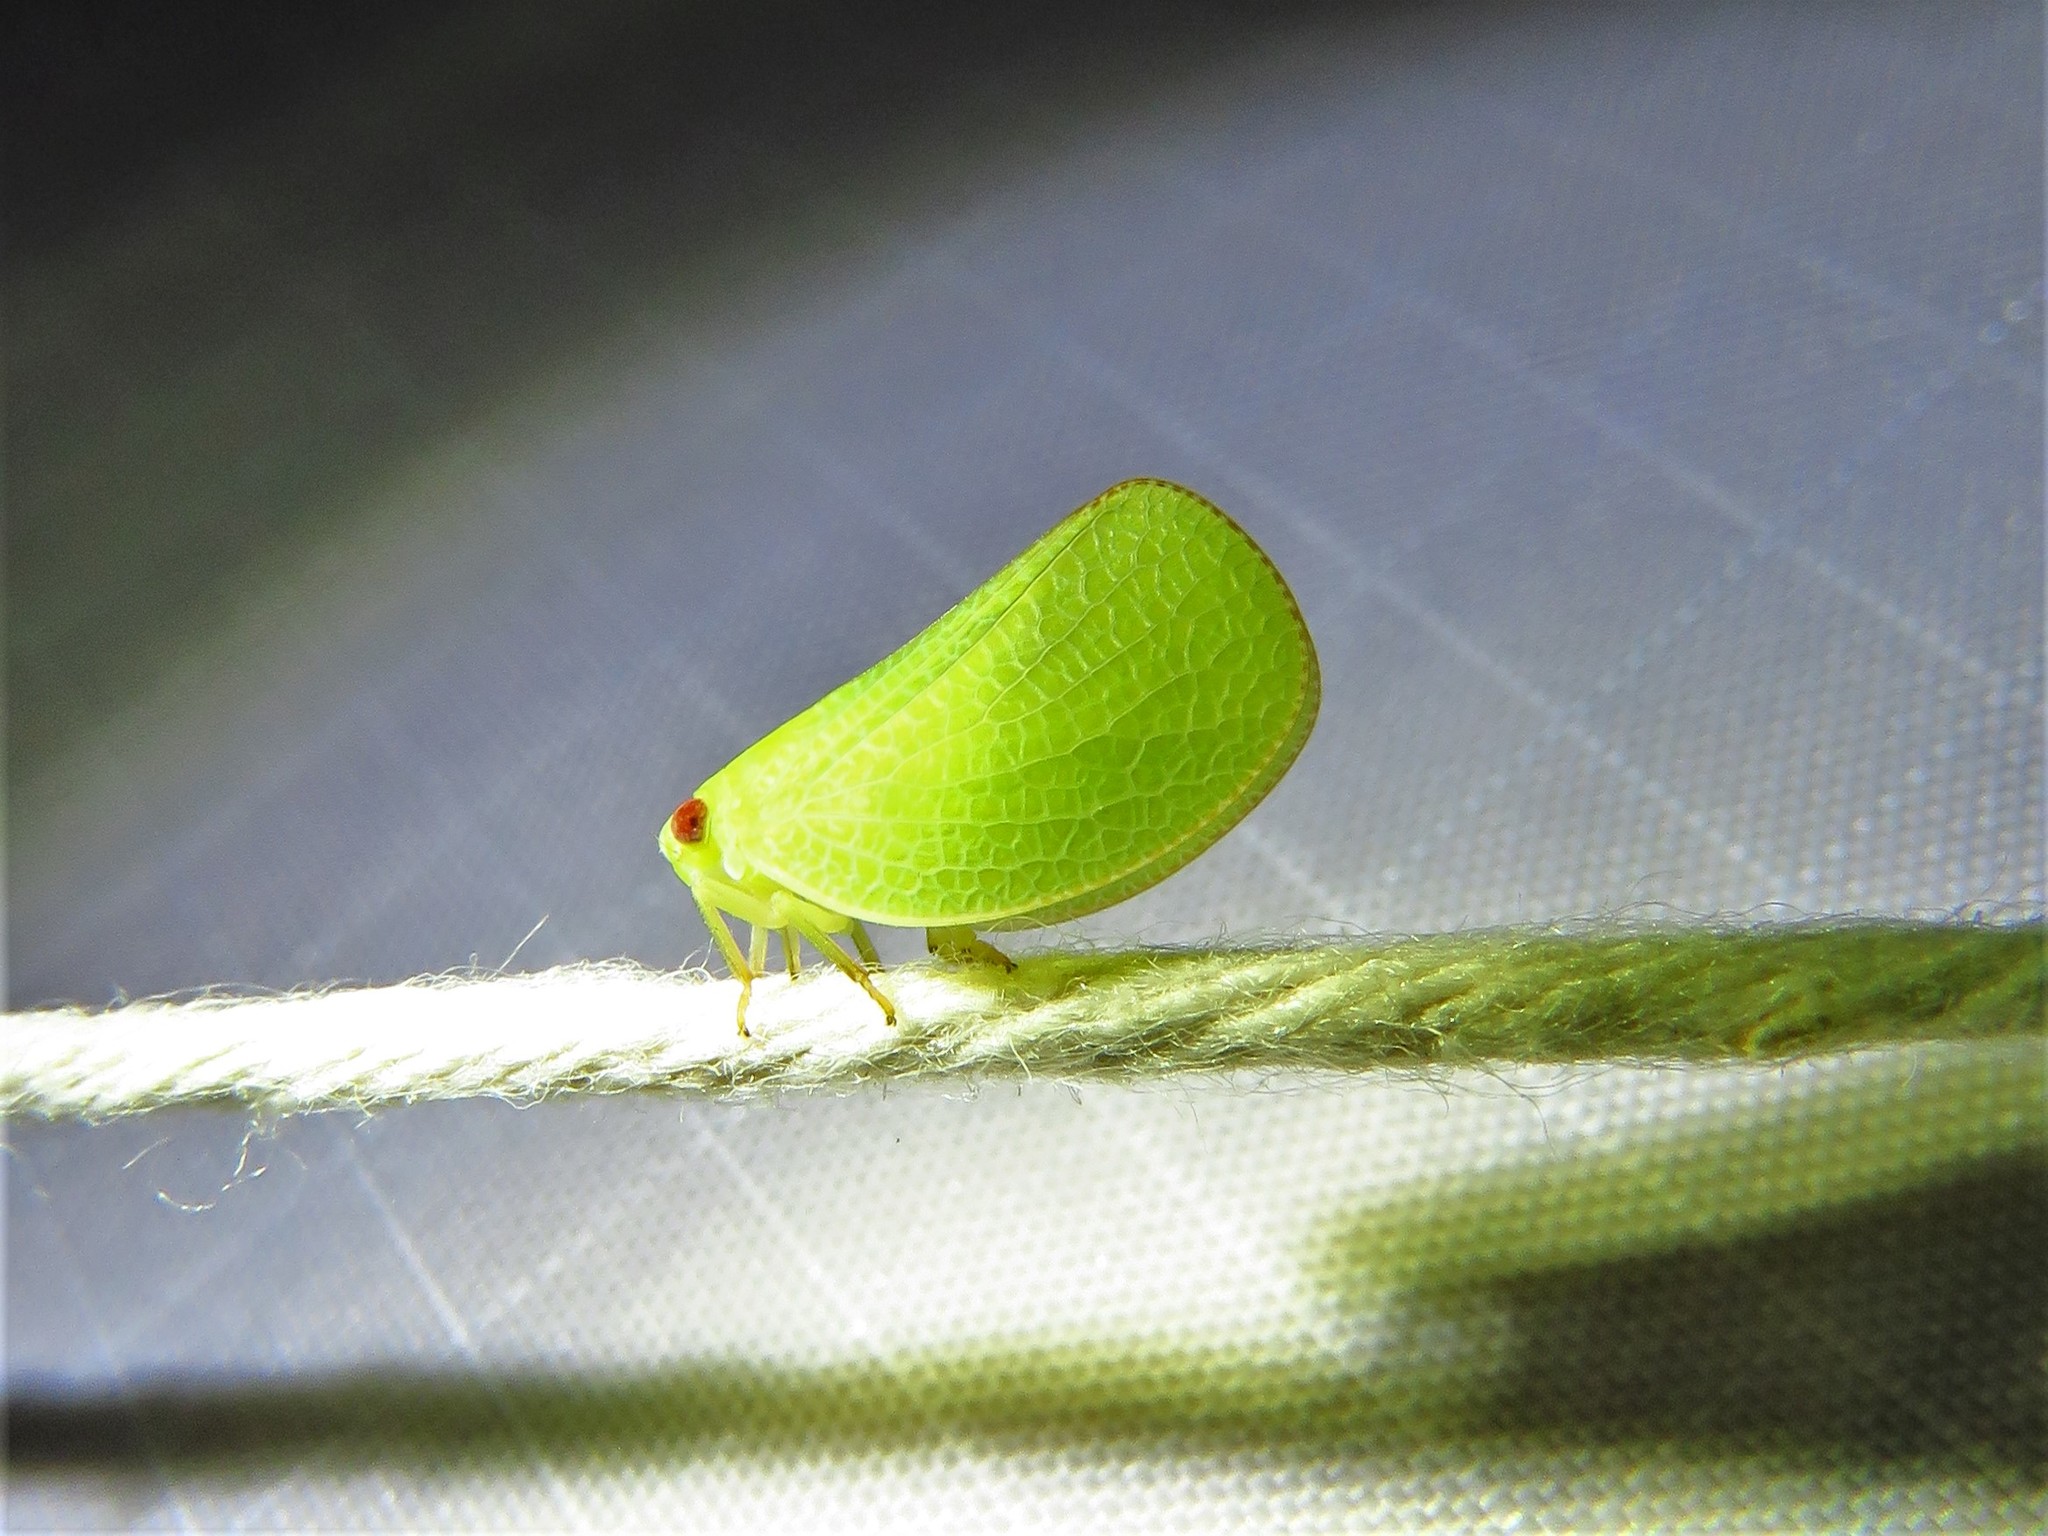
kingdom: Animalia
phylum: Arthropoda
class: Insecta
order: Hemiptera
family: Acanaloniidae
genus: Acanalonia
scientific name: Acanalonia conica
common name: Green cone-headed planthopper
